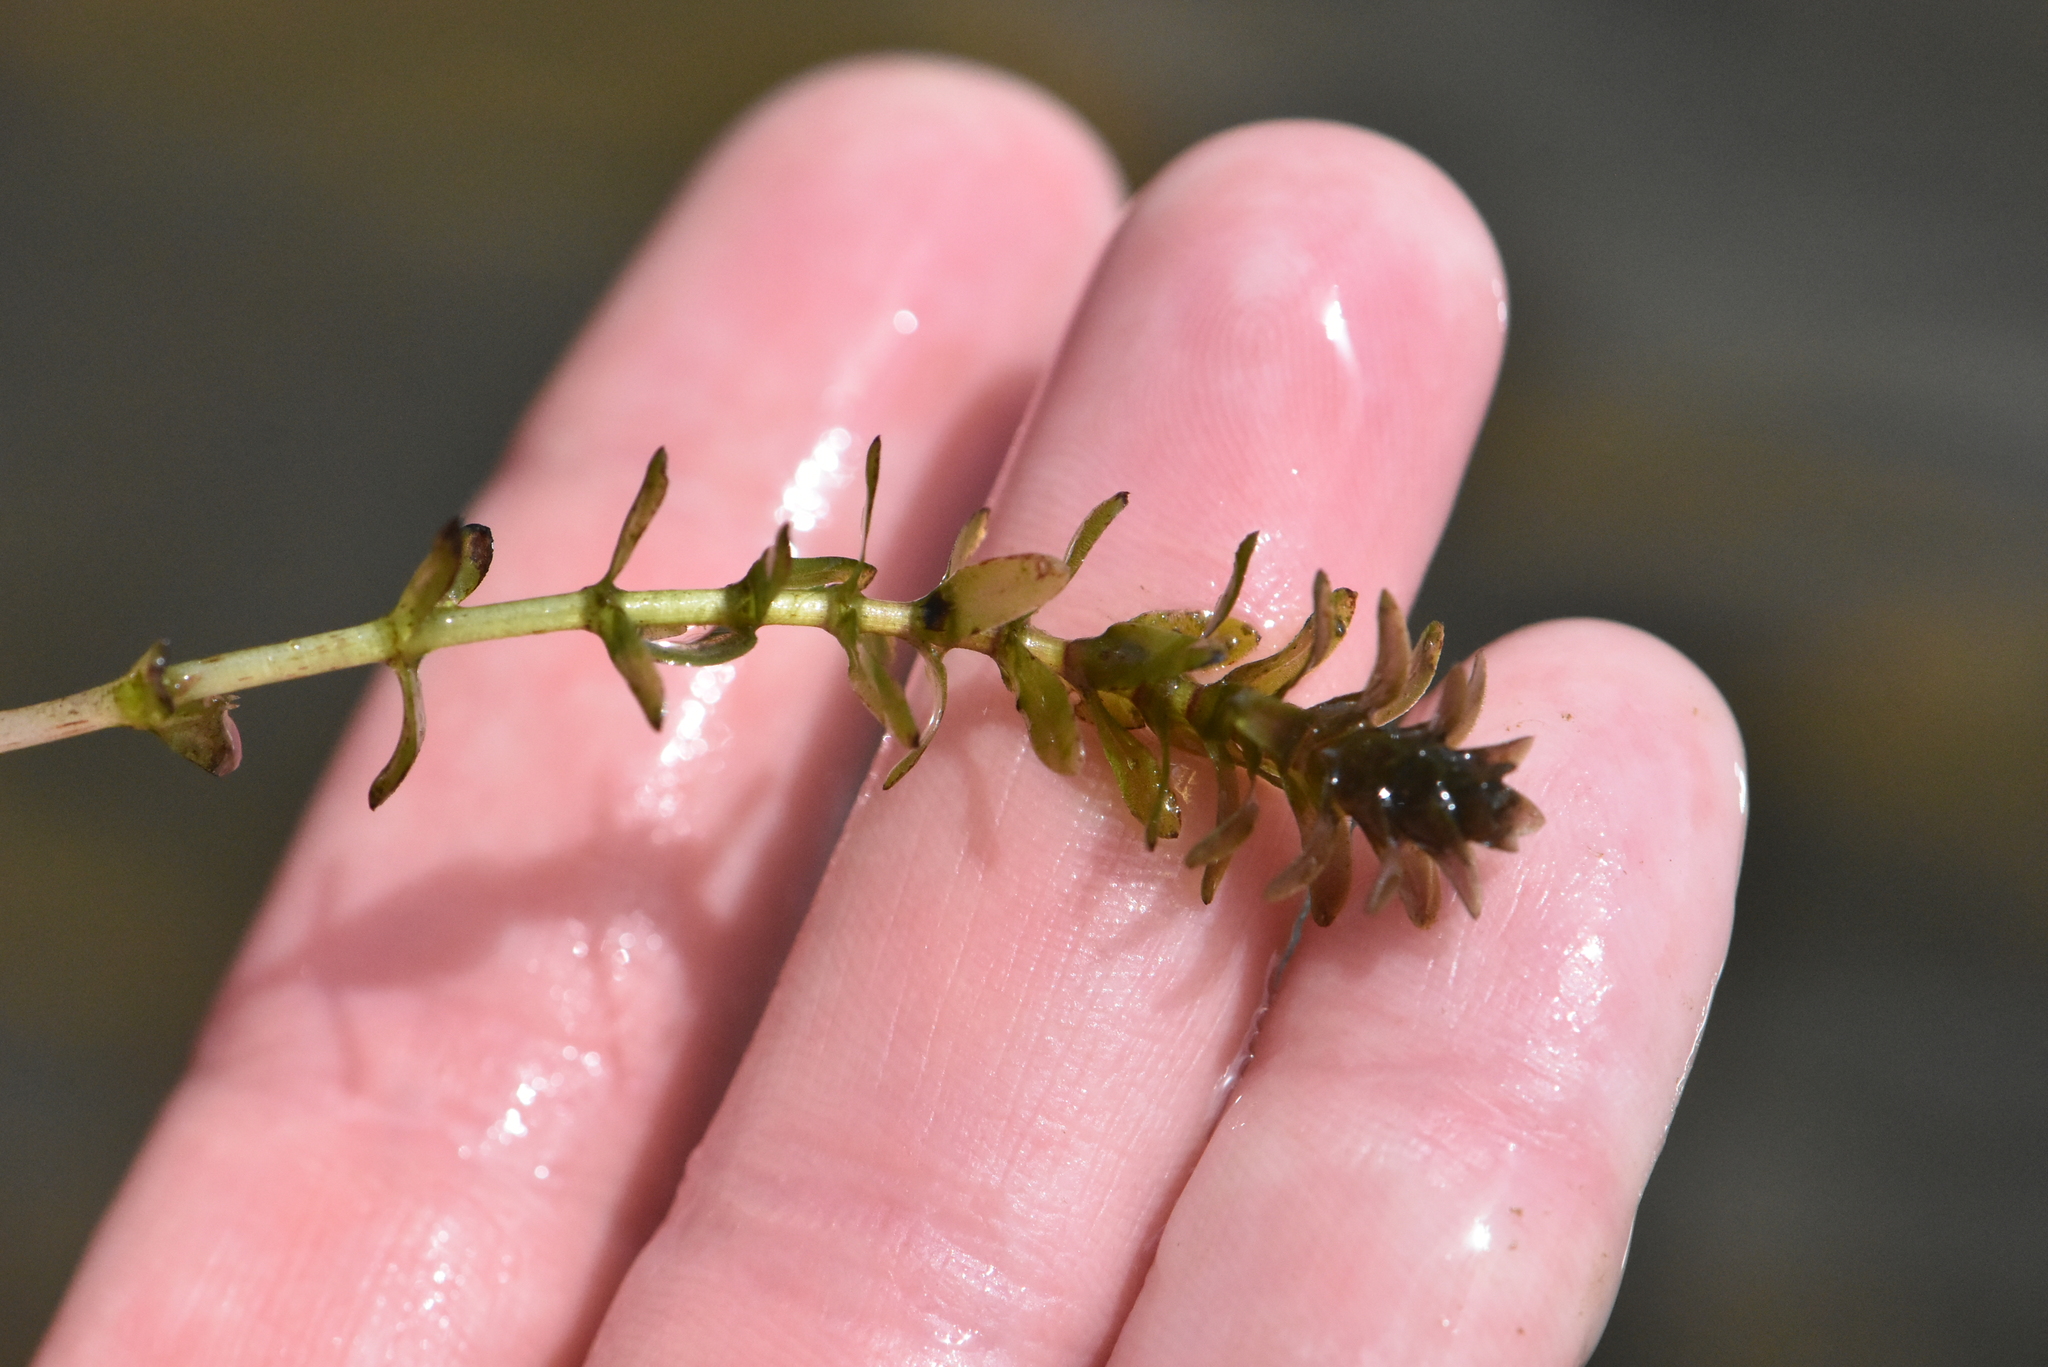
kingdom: Plantae
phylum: Tracheophyta
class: Liliopsida
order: Alismatales
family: Hydrocharitaceae
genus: Elodea
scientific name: Elodea canadensis
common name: Canadian waterweed
